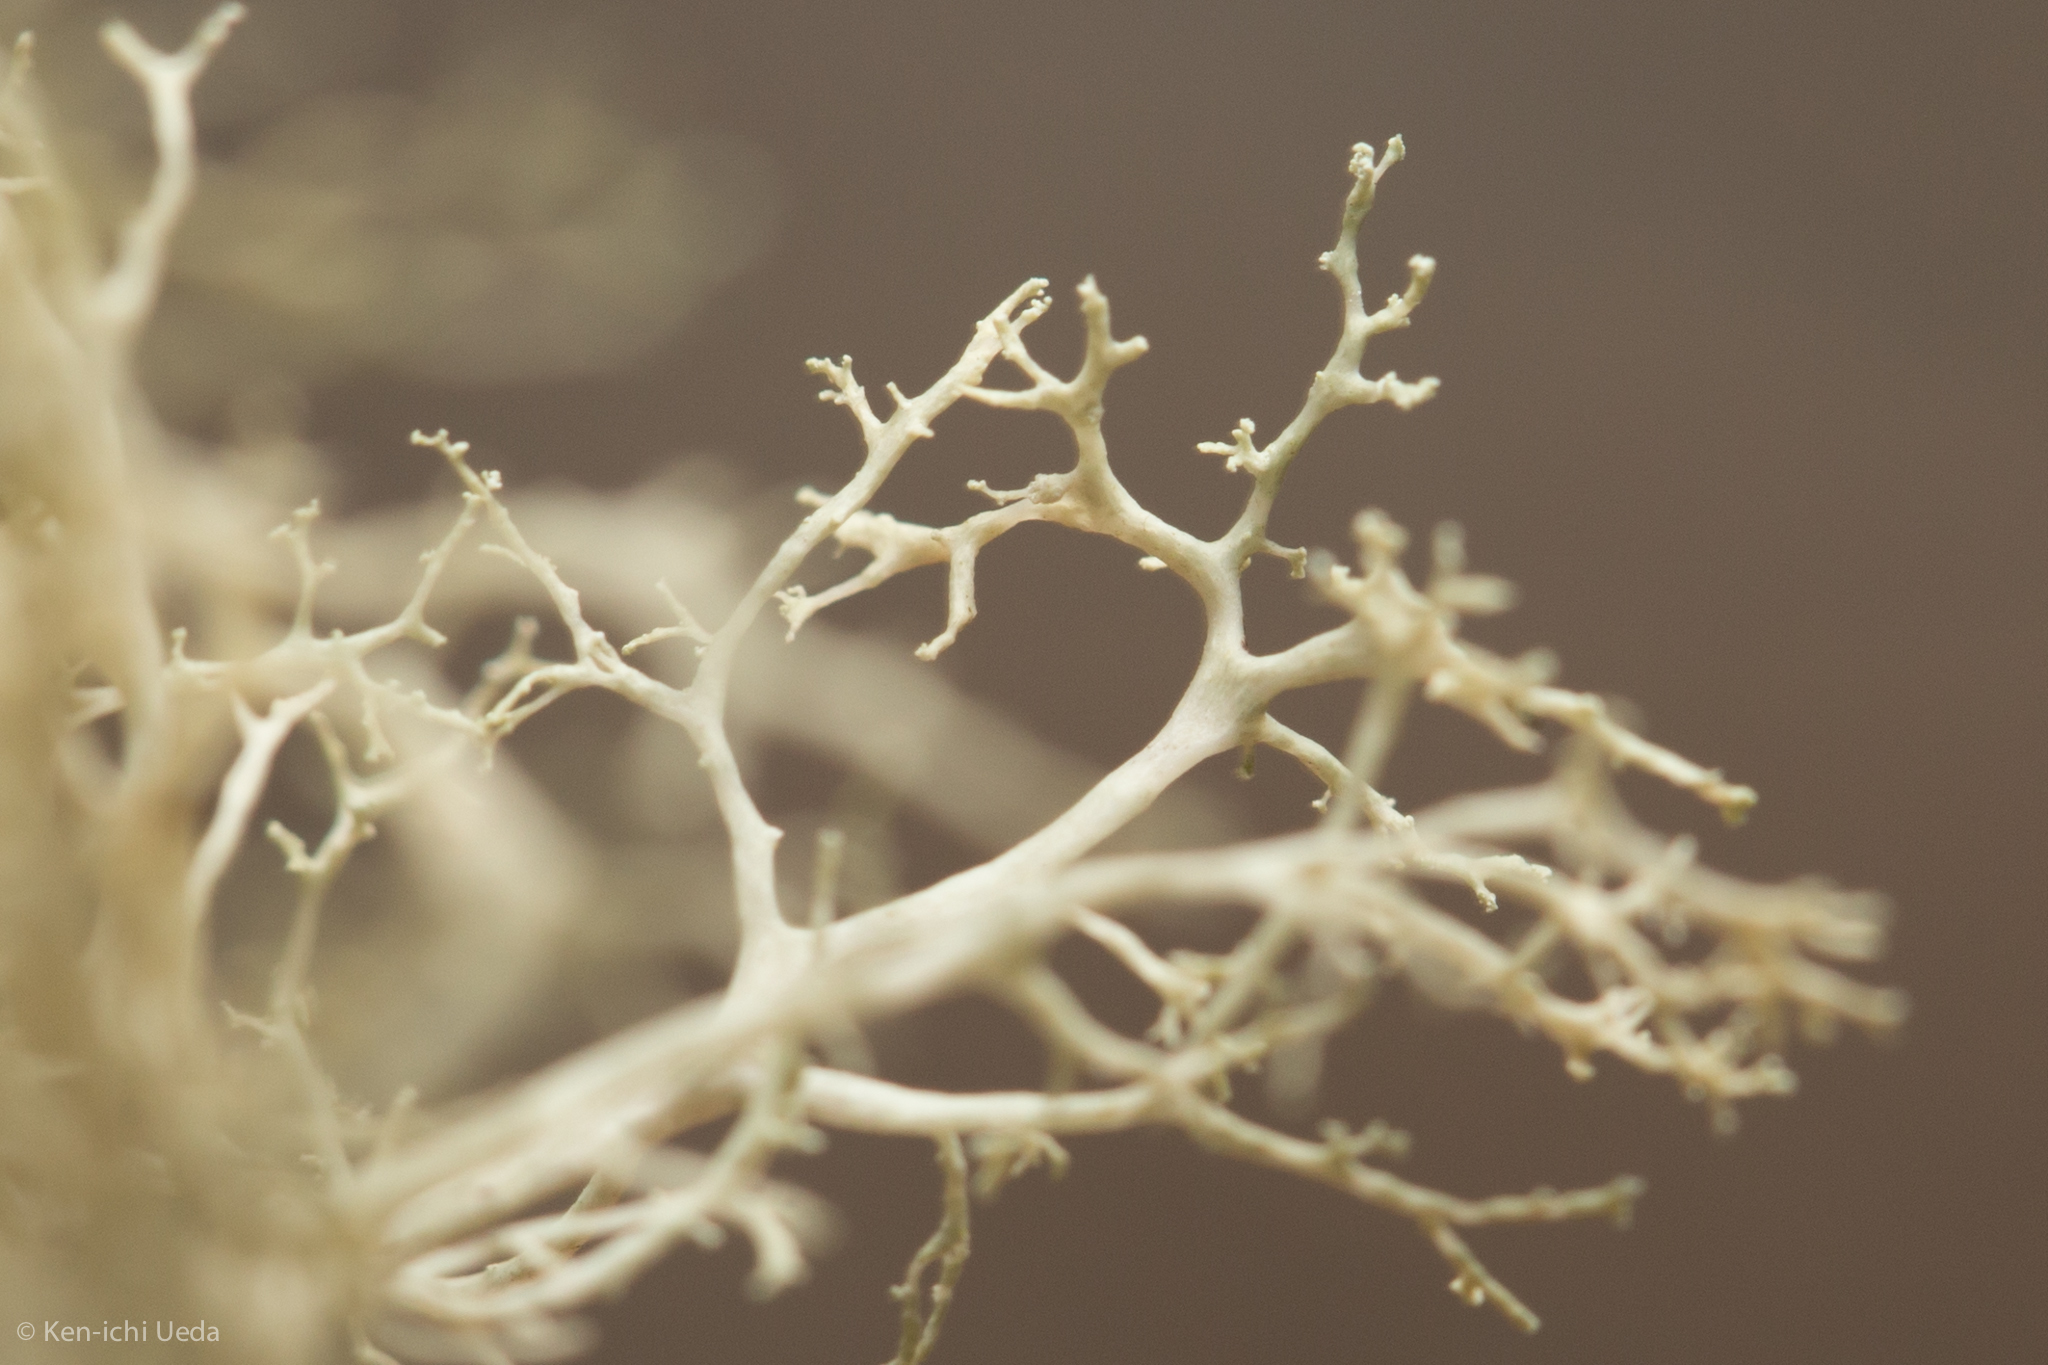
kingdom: Fungi
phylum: Ascomycota
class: Lecanoromycetes
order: Lecanorales
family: Ramalinaceae
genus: Ramalina
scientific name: Ramalina roesleri
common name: Frayed ribbon lichen
